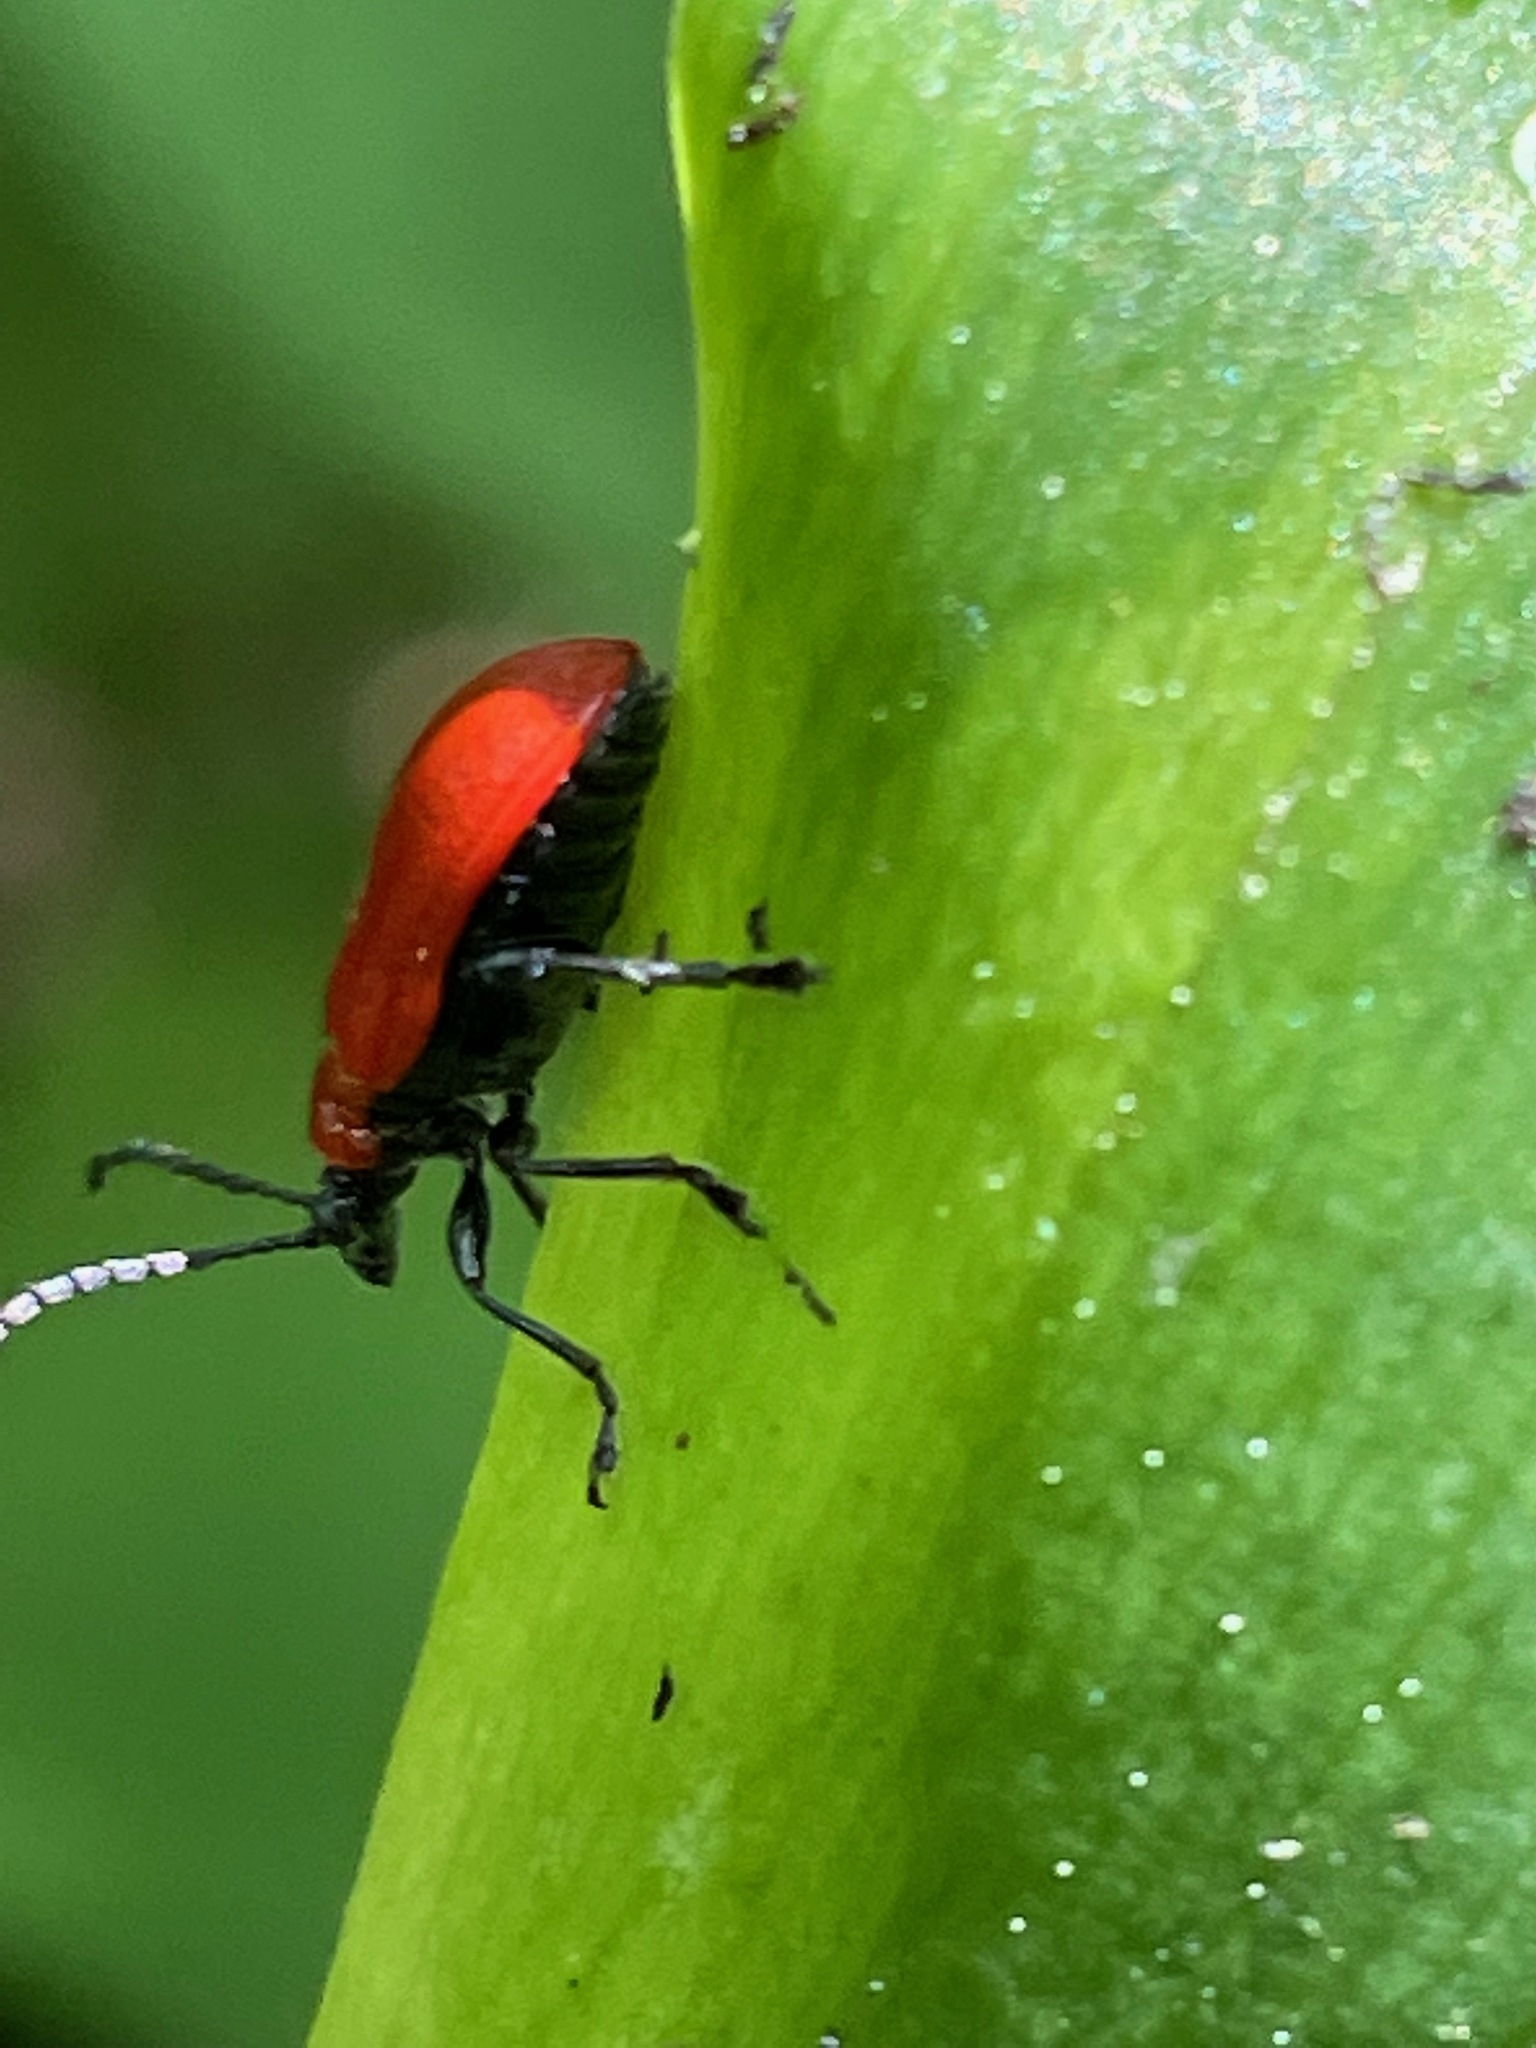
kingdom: Animalia
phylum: Arthropoda
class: Insecta
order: Coleoptera
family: Chrysomelidae
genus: Lilioceris
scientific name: Lilioceris lilii
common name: Lily beetle
